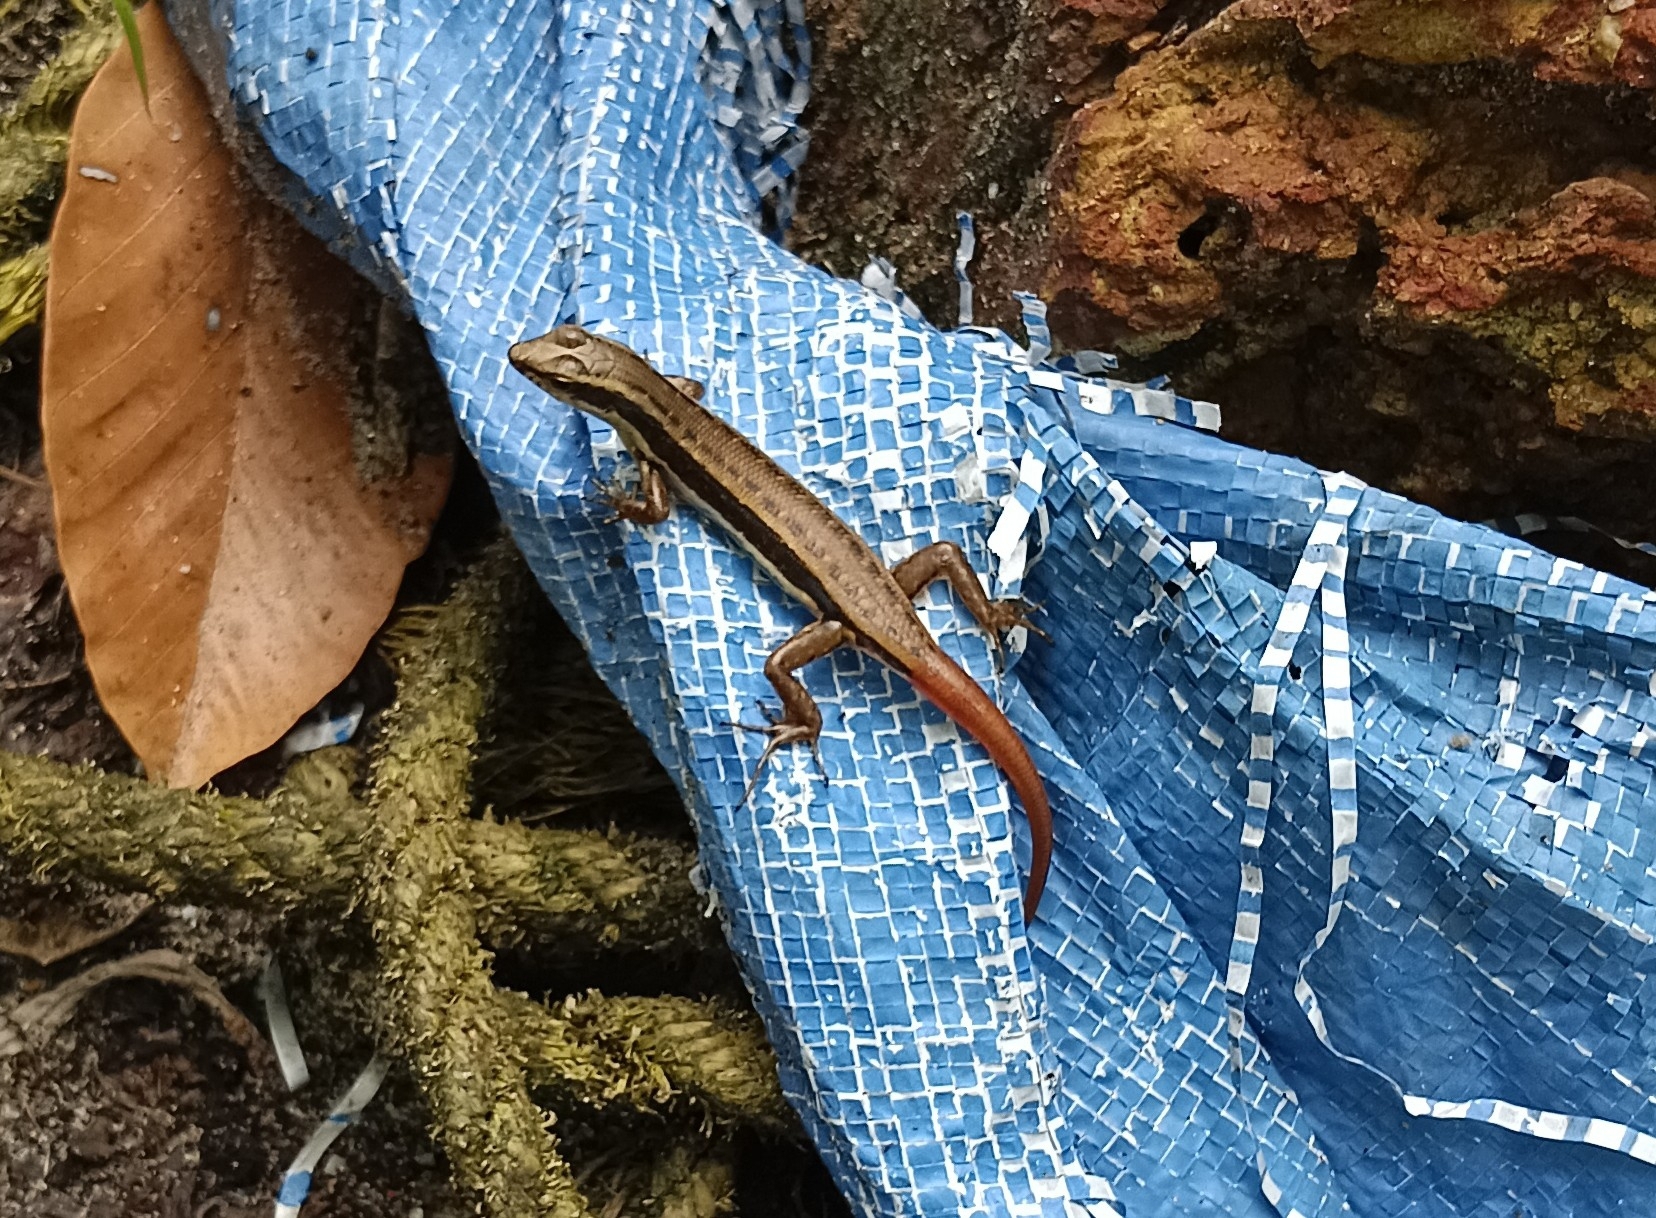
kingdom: Animalia
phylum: Chordata
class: Squamata
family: Scincidae
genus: Sphenomorphus
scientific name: Sphenomorphus dussumieri
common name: Dussumier's forest skink
